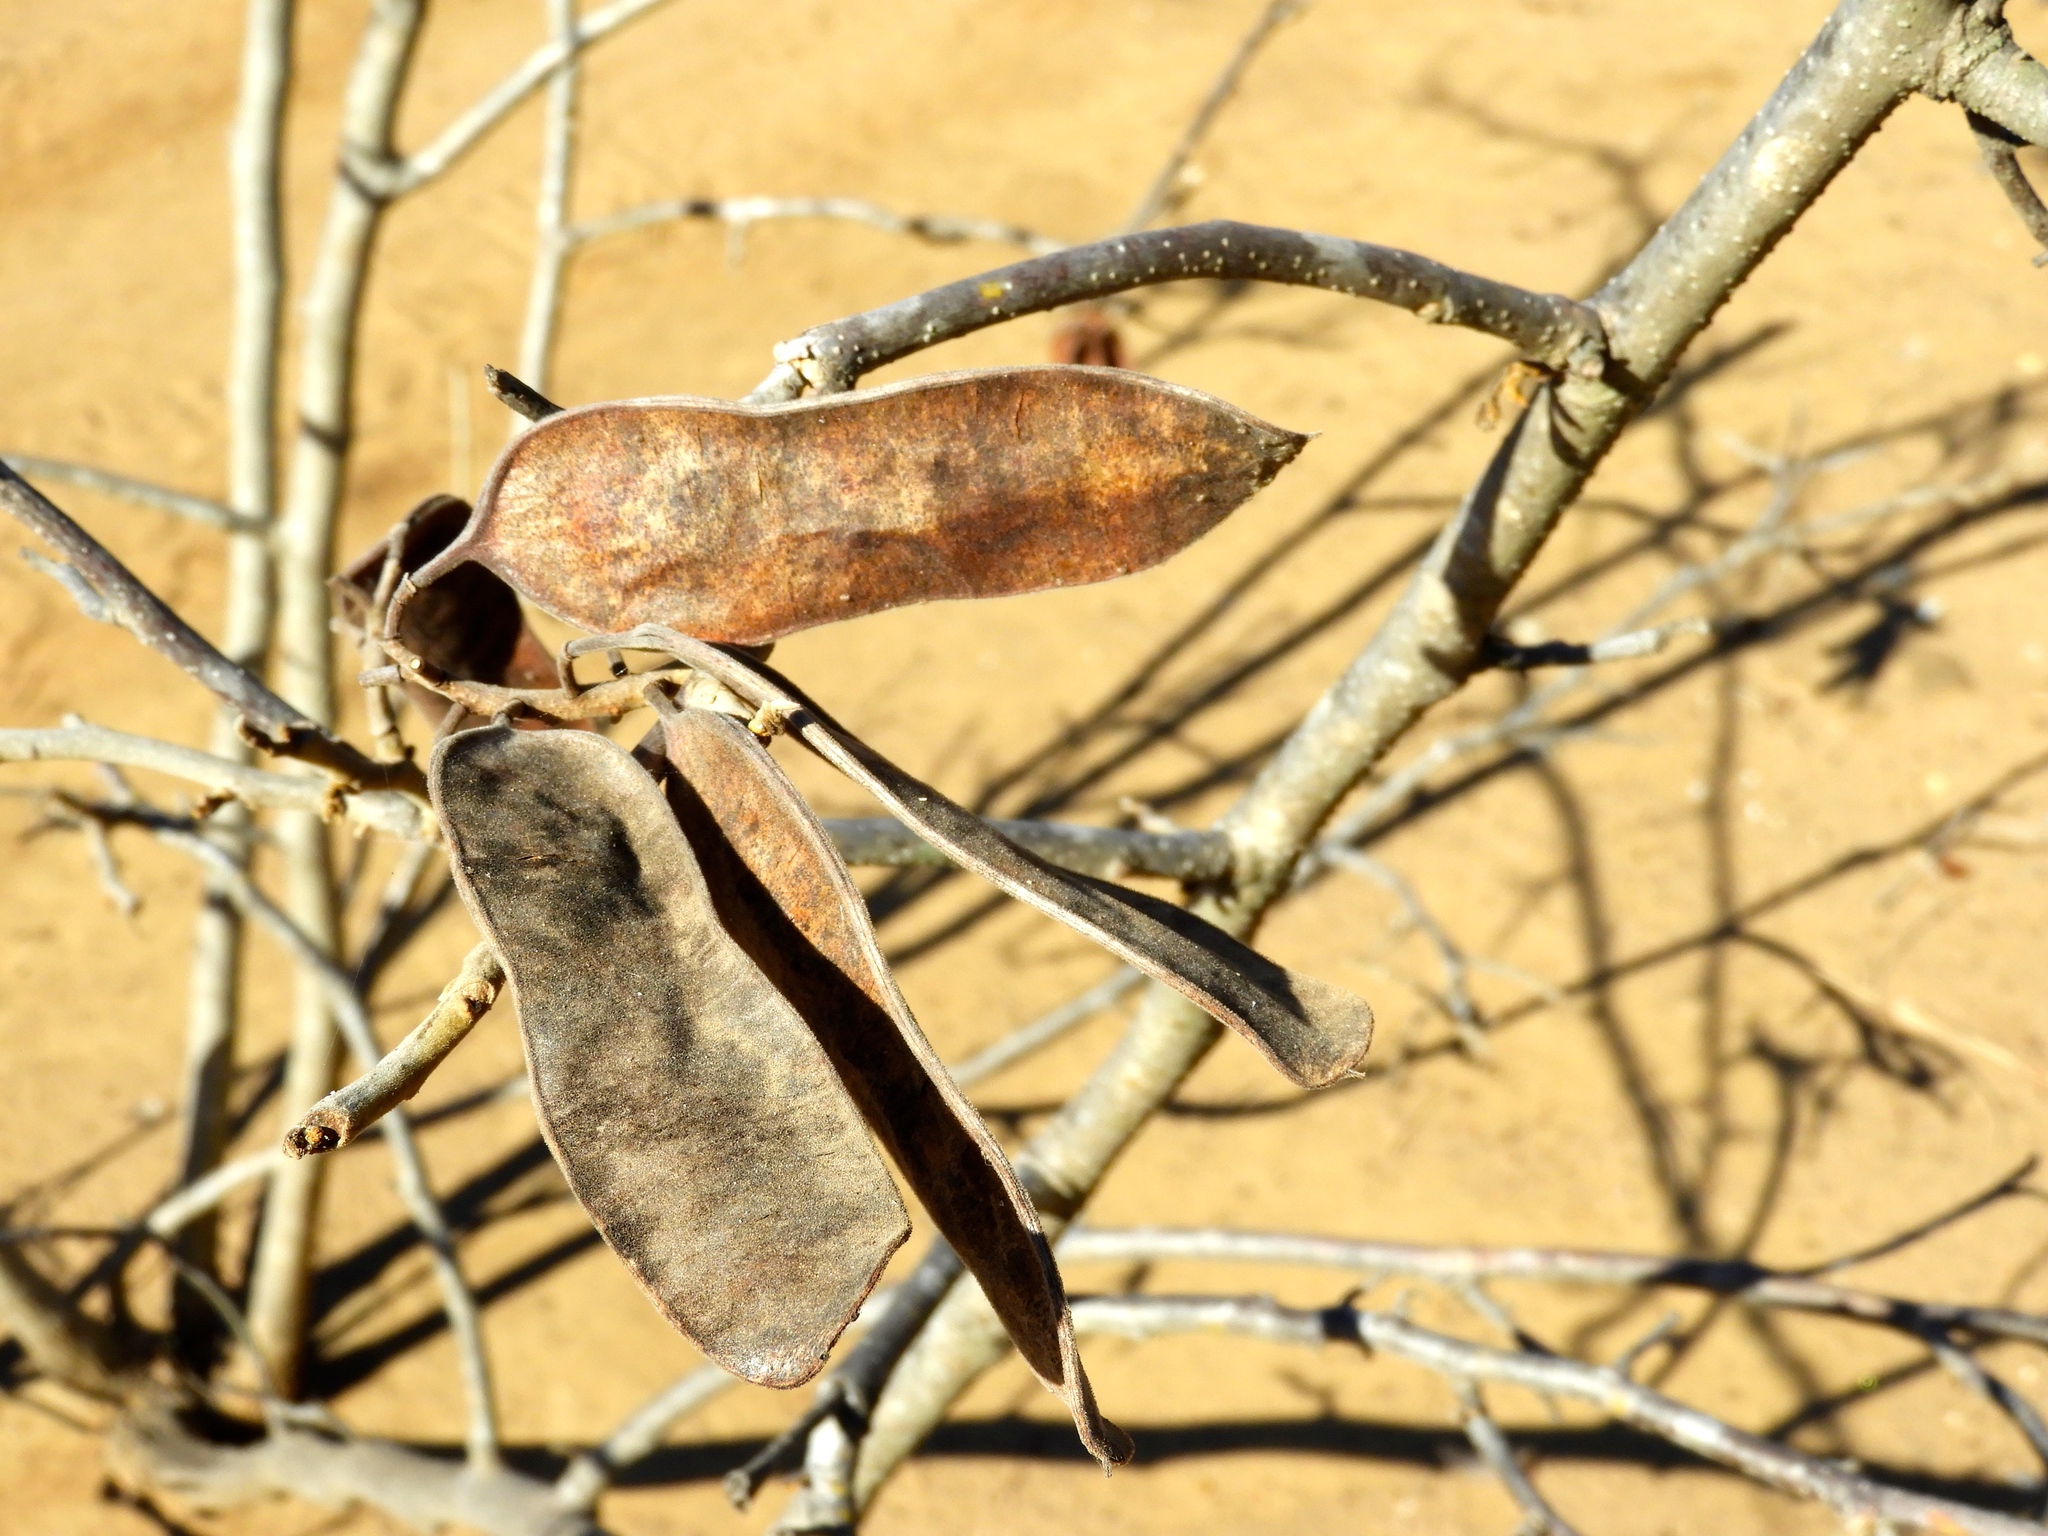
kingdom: Plantae
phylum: Tracheophyta
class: Magnoliopsida
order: Fabales
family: Fabaceae
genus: Coulteria
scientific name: Coulteria platyloba
